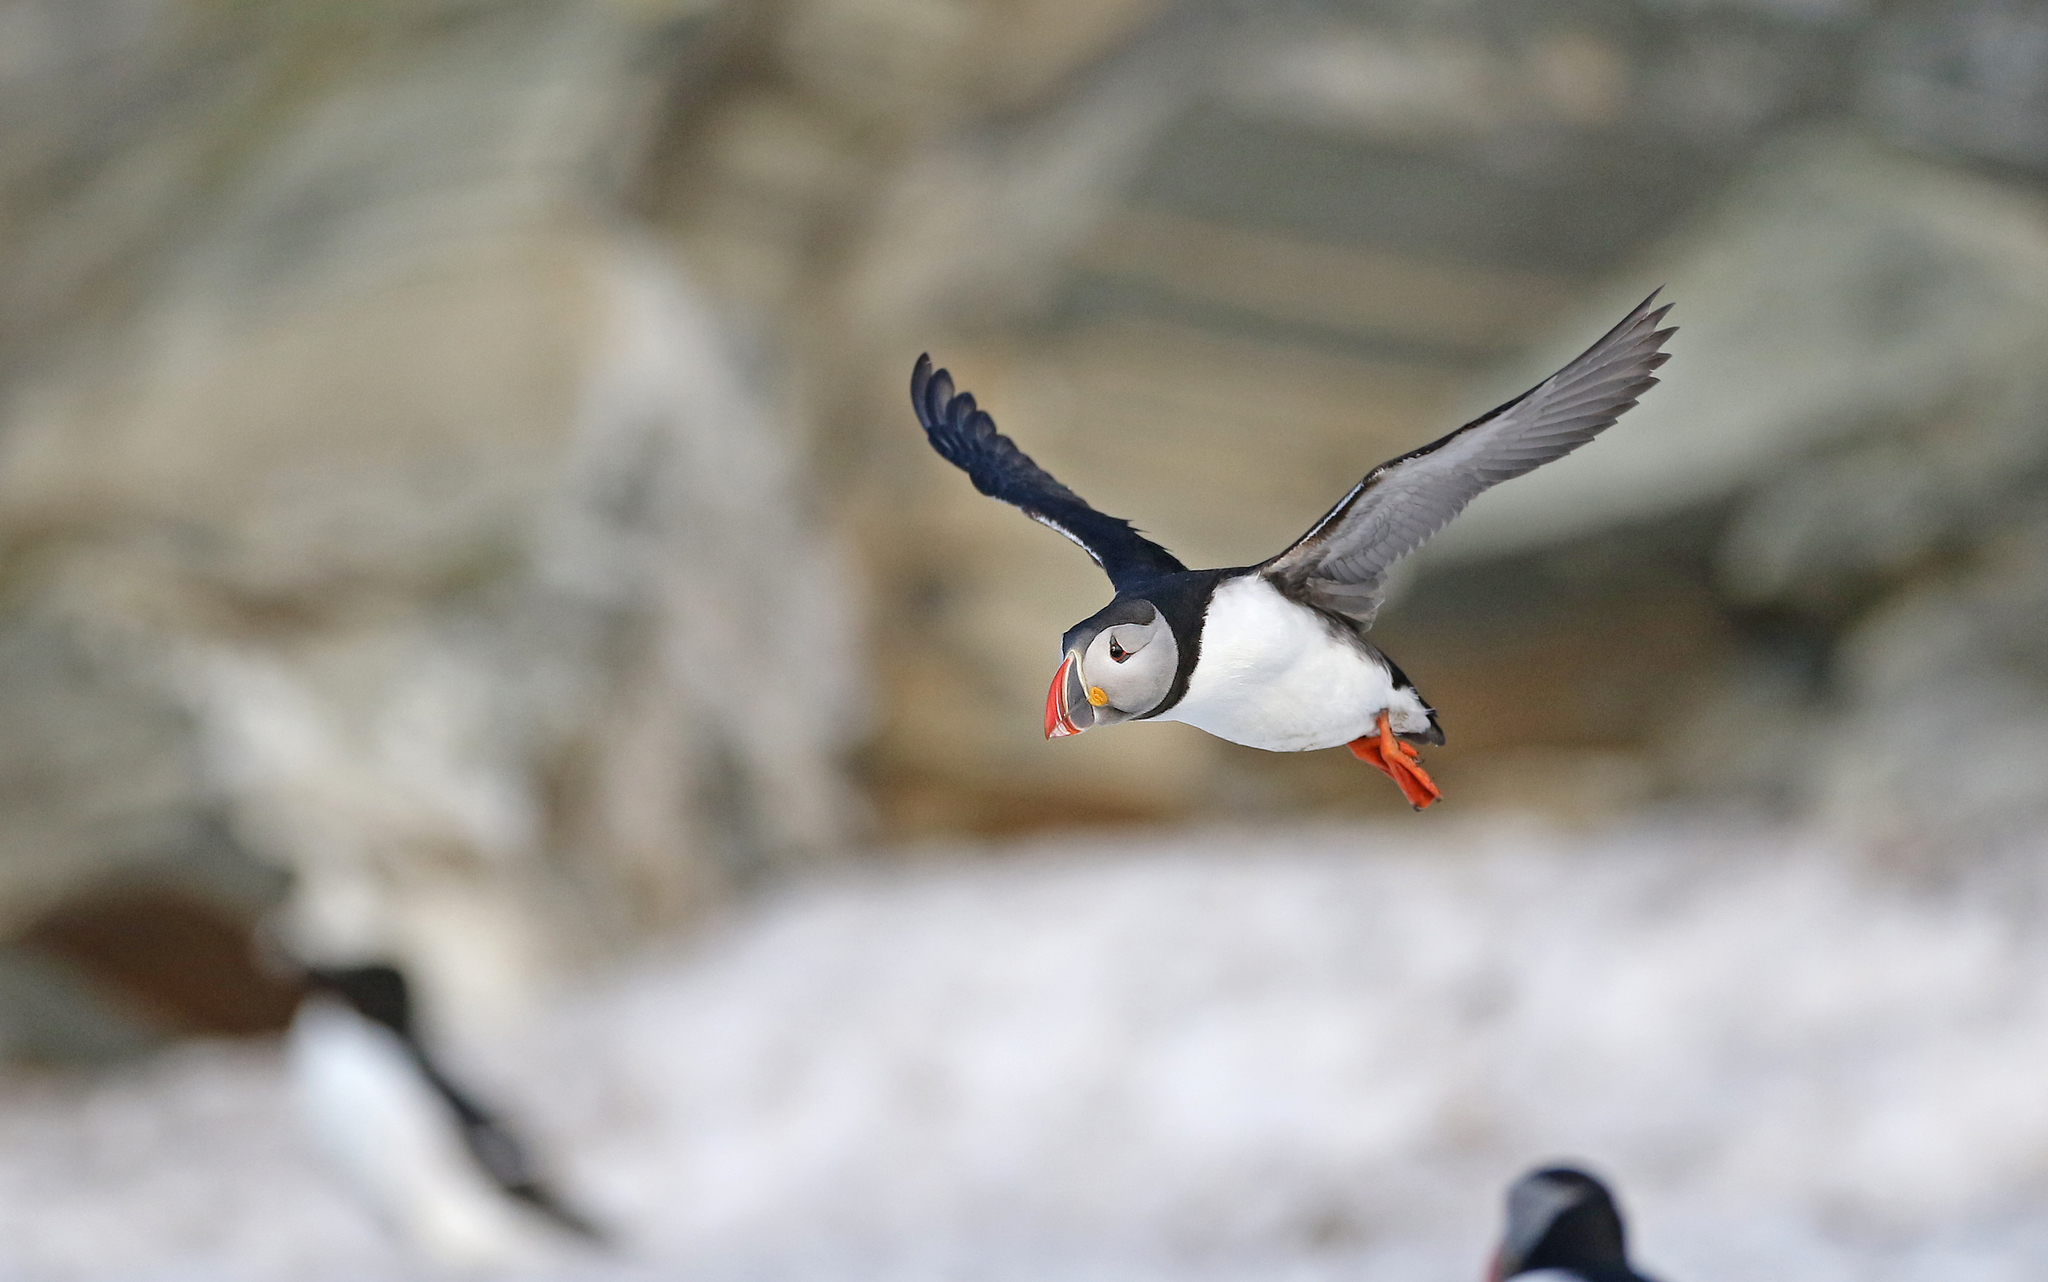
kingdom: Animalia
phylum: Chordata
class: Aves
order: Charadriiformes
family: Alcidae
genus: Fratercula
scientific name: Fratercula arctica
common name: Atlantic puffin
